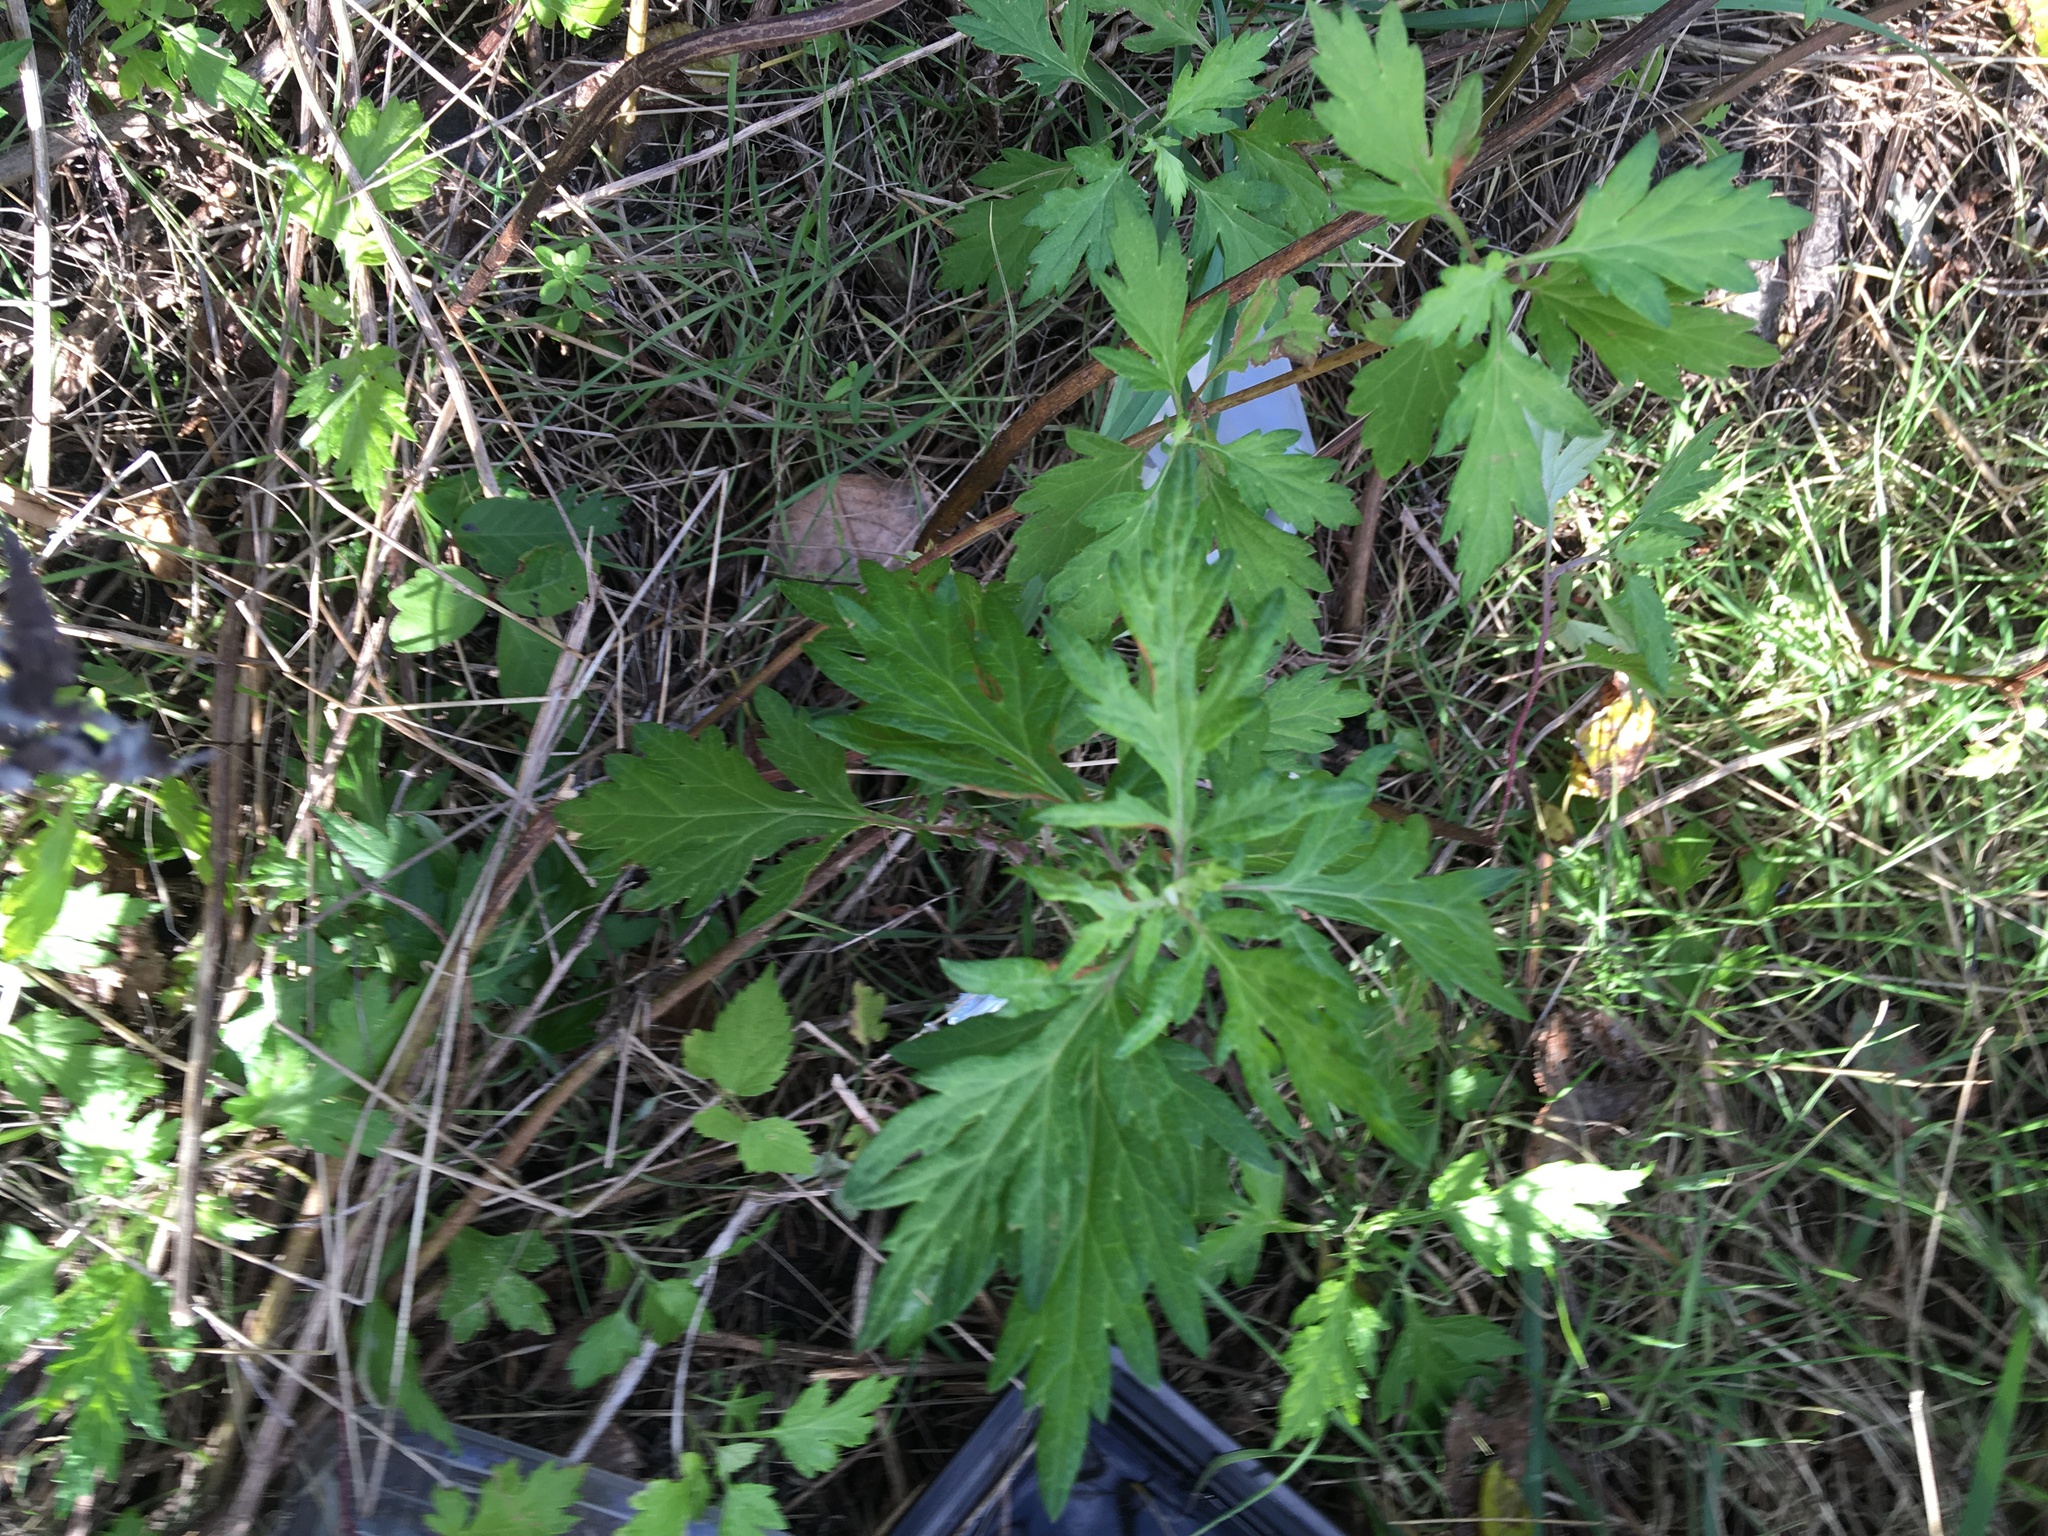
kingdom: Plantae
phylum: Tracheophyta
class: Magnoliopsida
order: Asterales
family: Asteraceae
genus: Artemisia
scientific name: Artemisia vulgaris
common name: Mugwort
